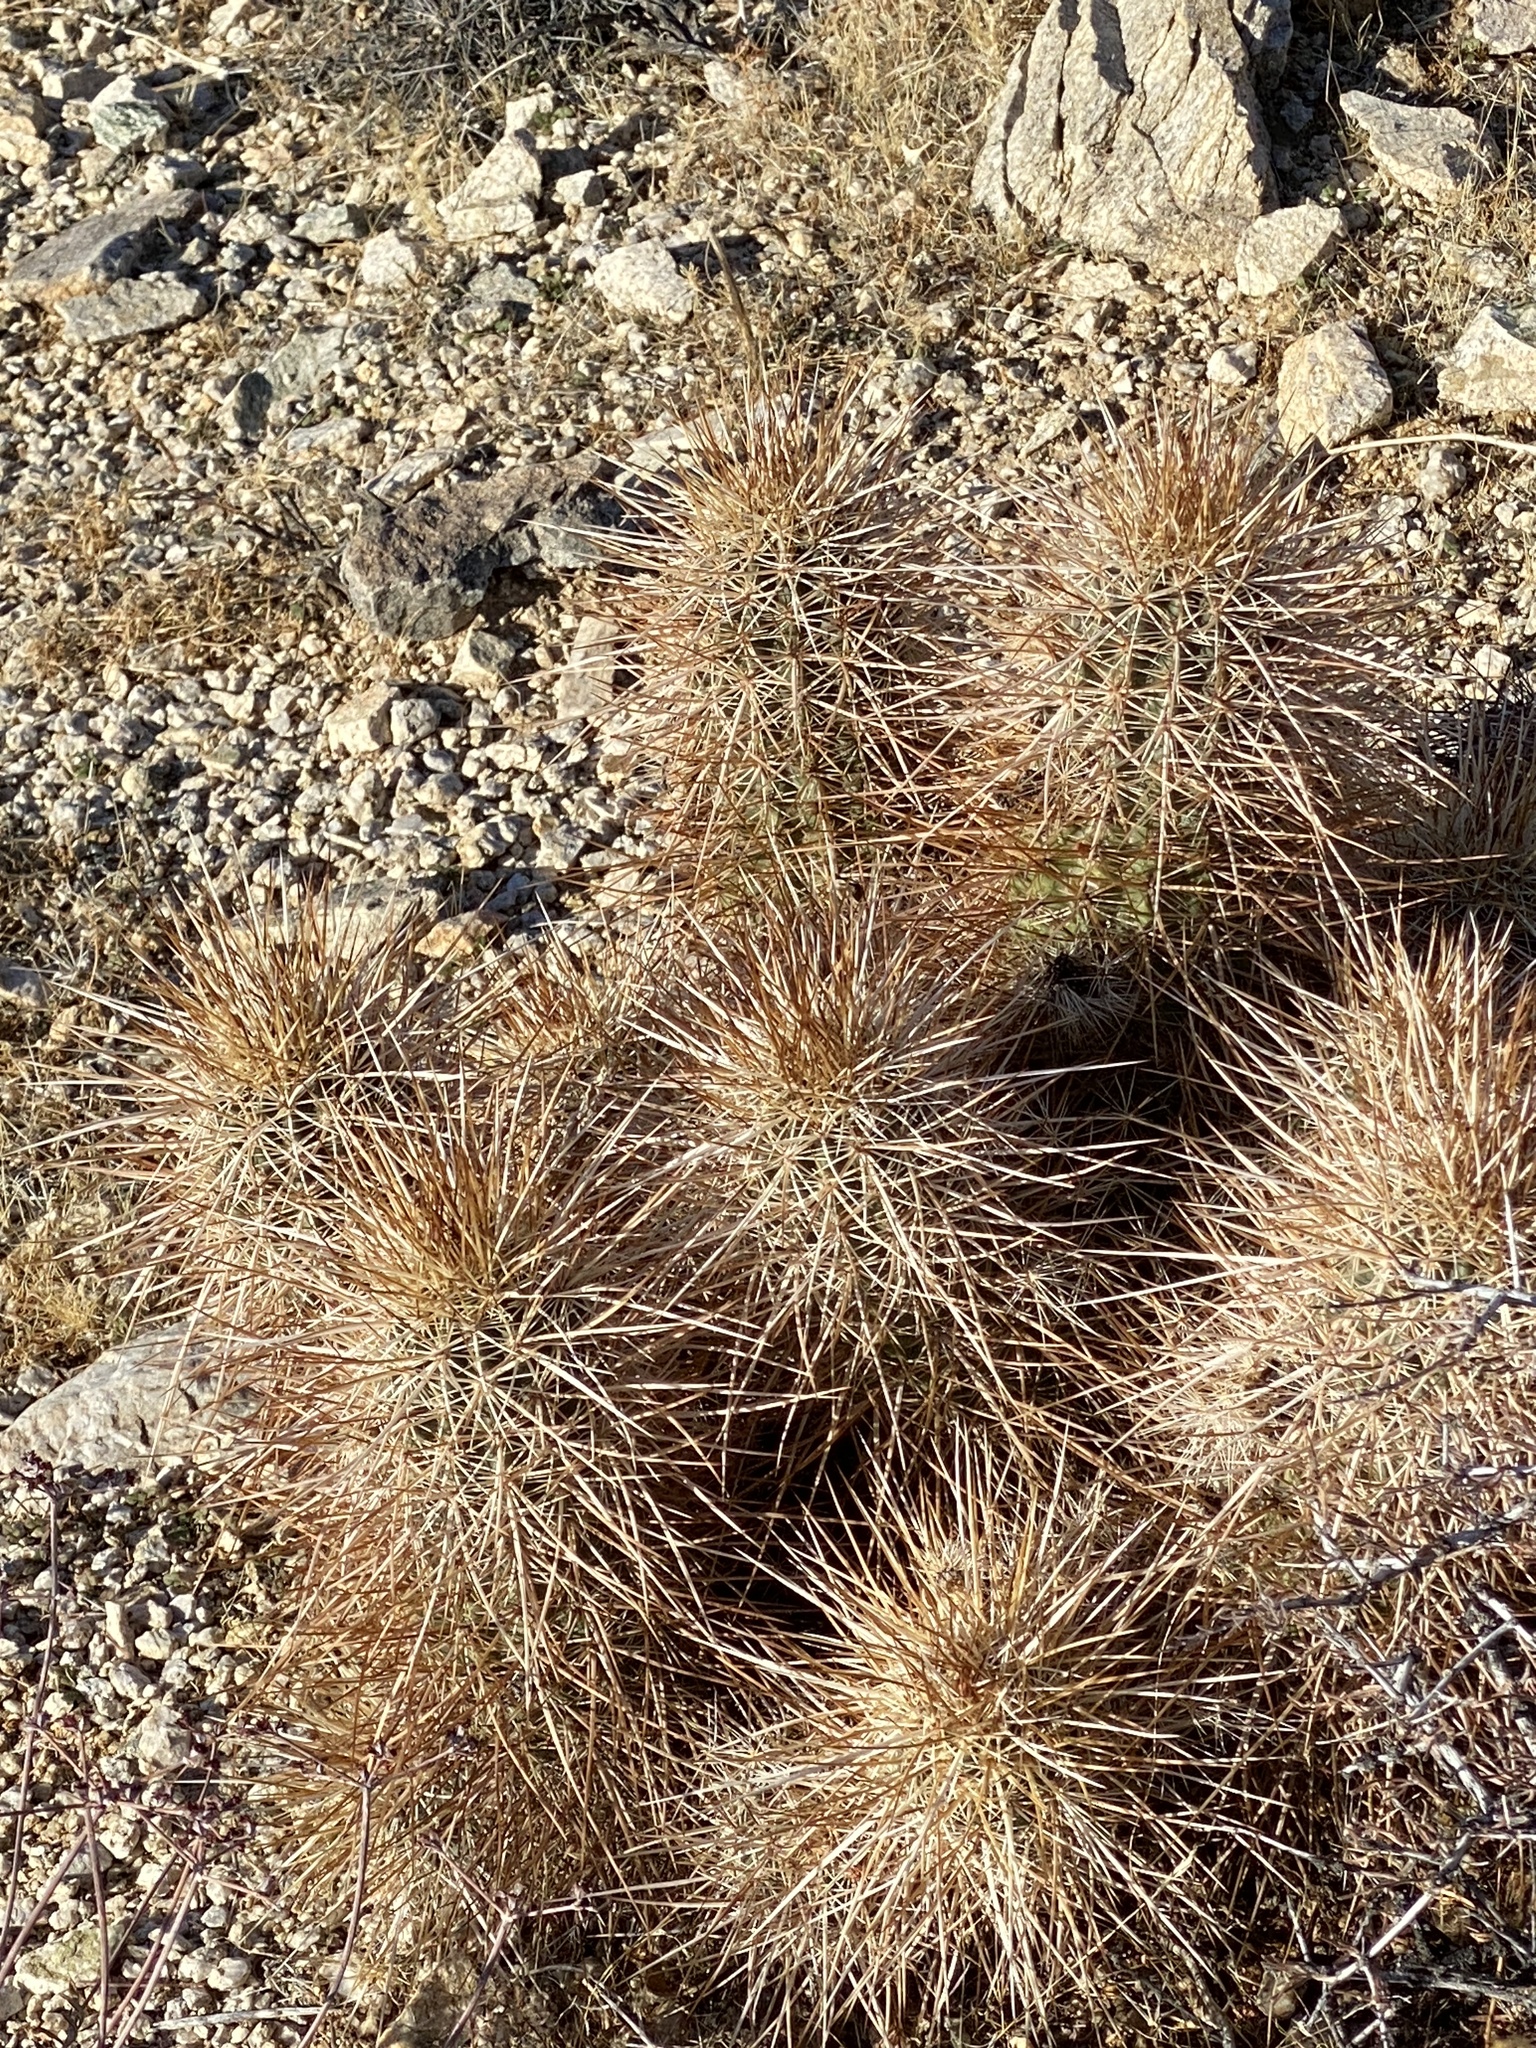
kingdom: Plantae
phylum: Tracheophyta
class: Magnoliopsida
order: Caryophyllales
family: Cactaceae
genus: Echinocereus
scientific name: Echinocereus engelmannii
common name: Engelmann's hedgehog cactus
